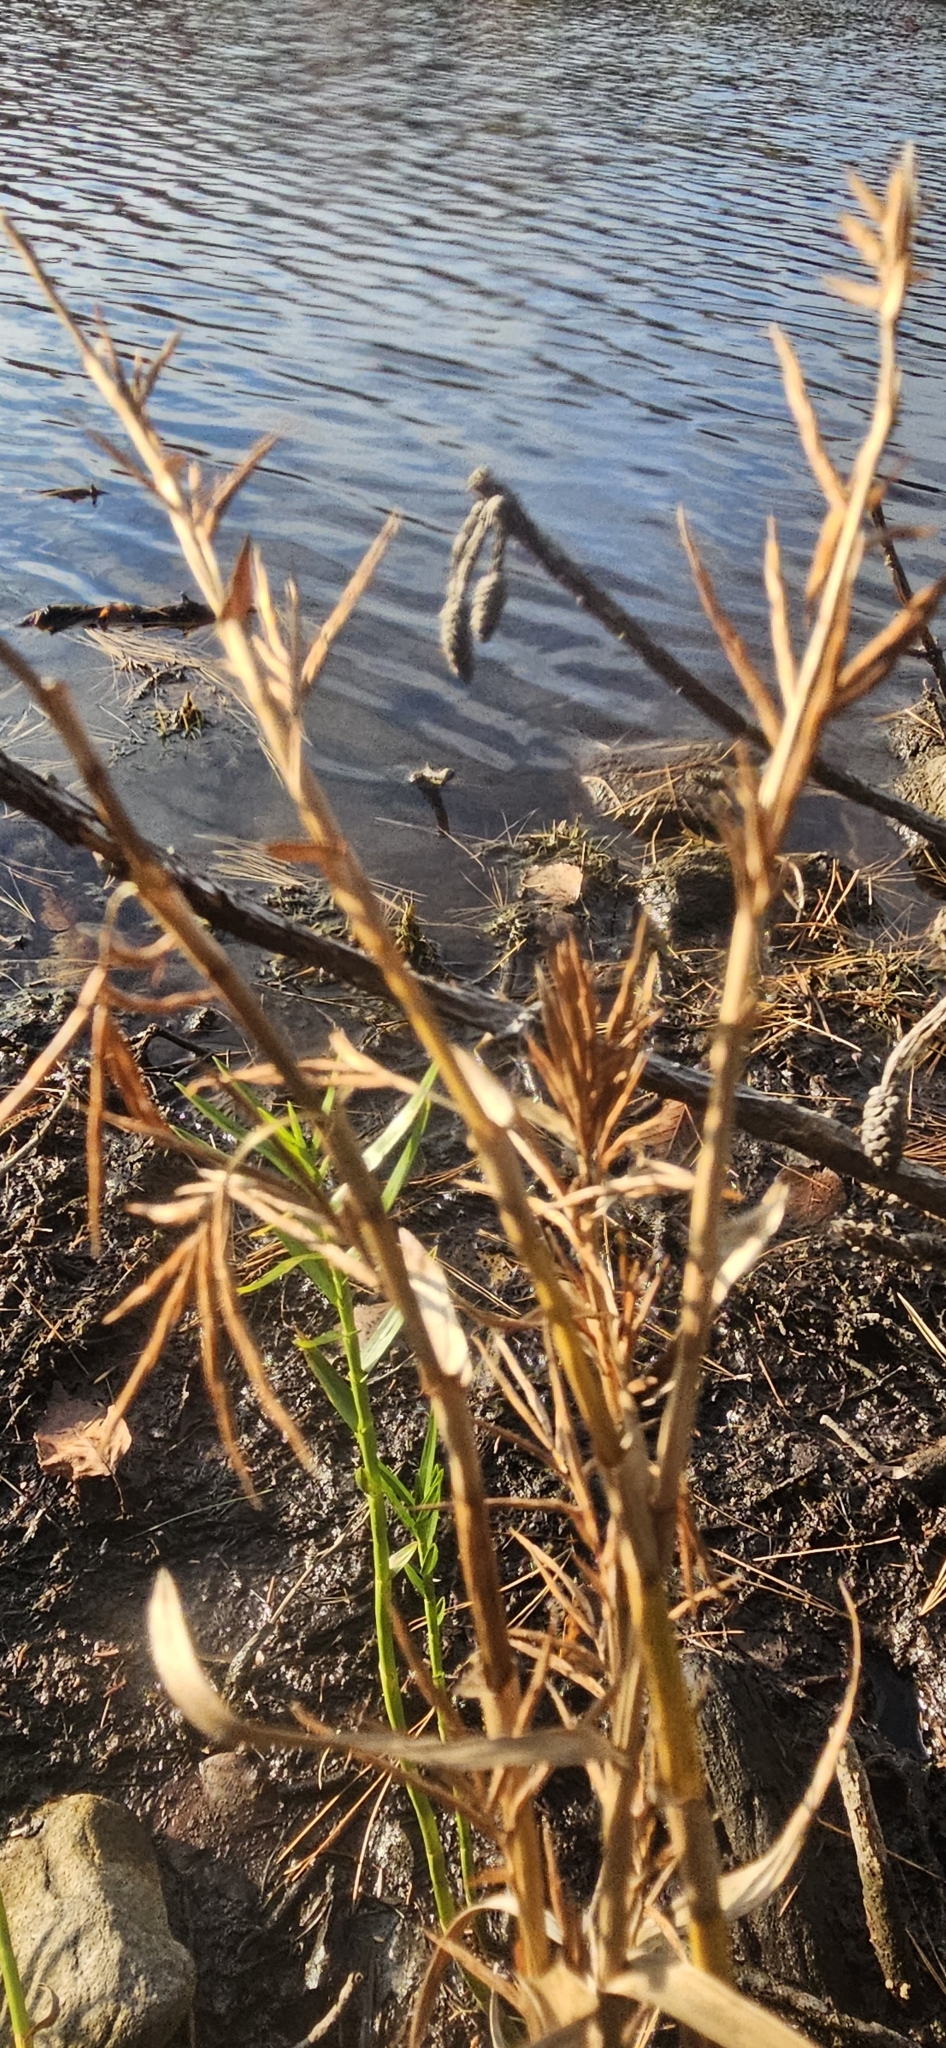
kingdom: Plantae
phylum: Tracheophyta
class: Liliopsida
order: Poales
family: Cyperaceae
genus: Dulichium
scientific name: Dulichium arundinaceum
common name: Three-way sedge
